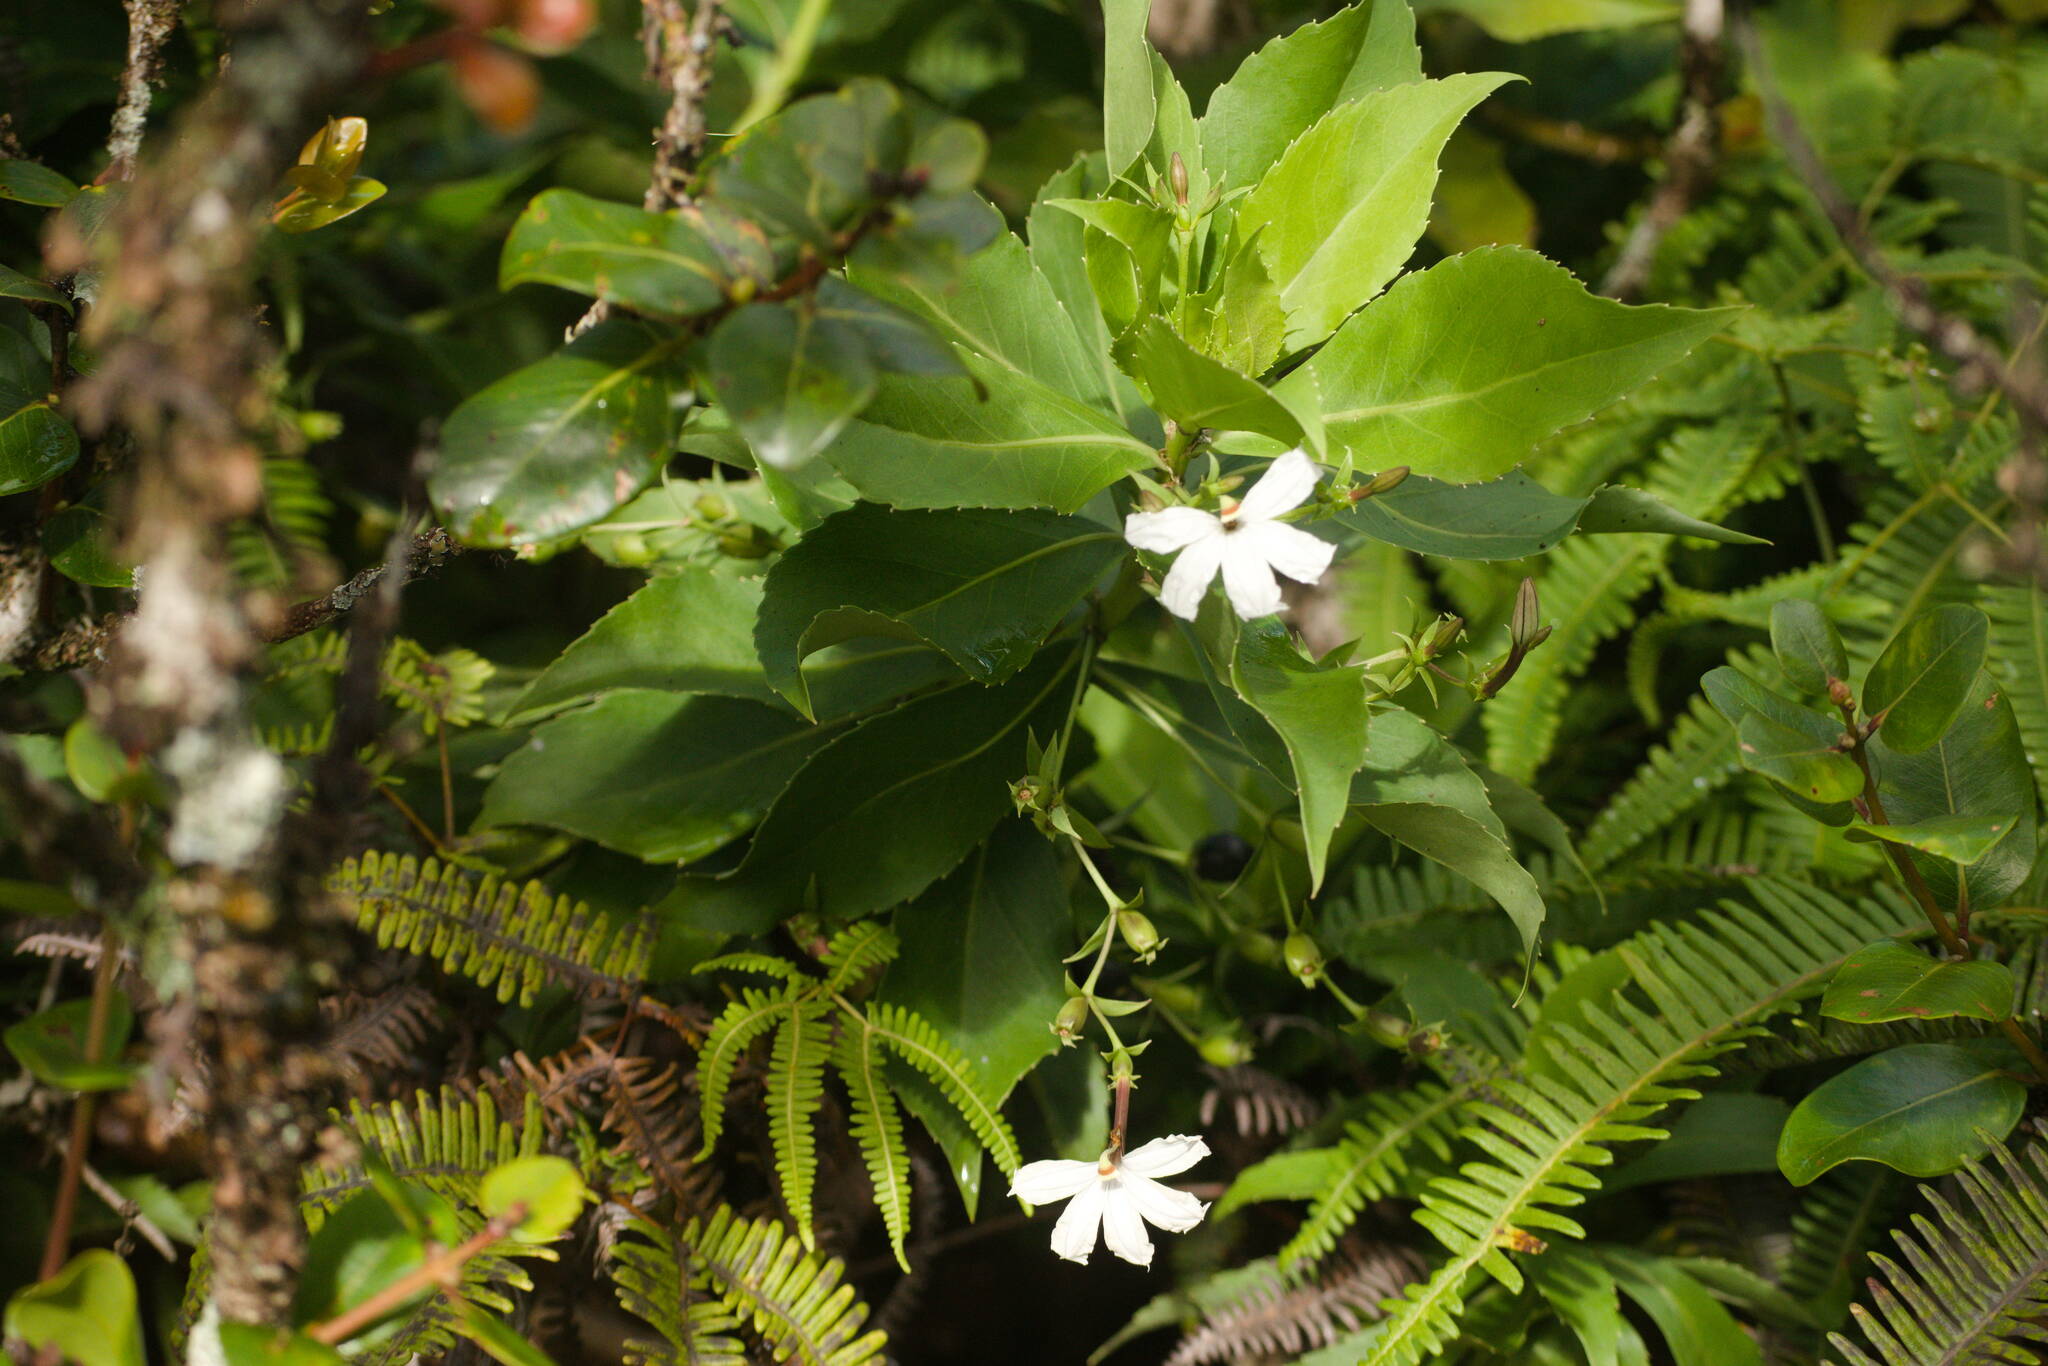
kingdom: Plantae
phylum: Tracheophyta
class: Magnoliopsida
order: Asterales
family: Goodeniaceae
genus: Scaevola
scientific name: Scaevola chamissoniana
